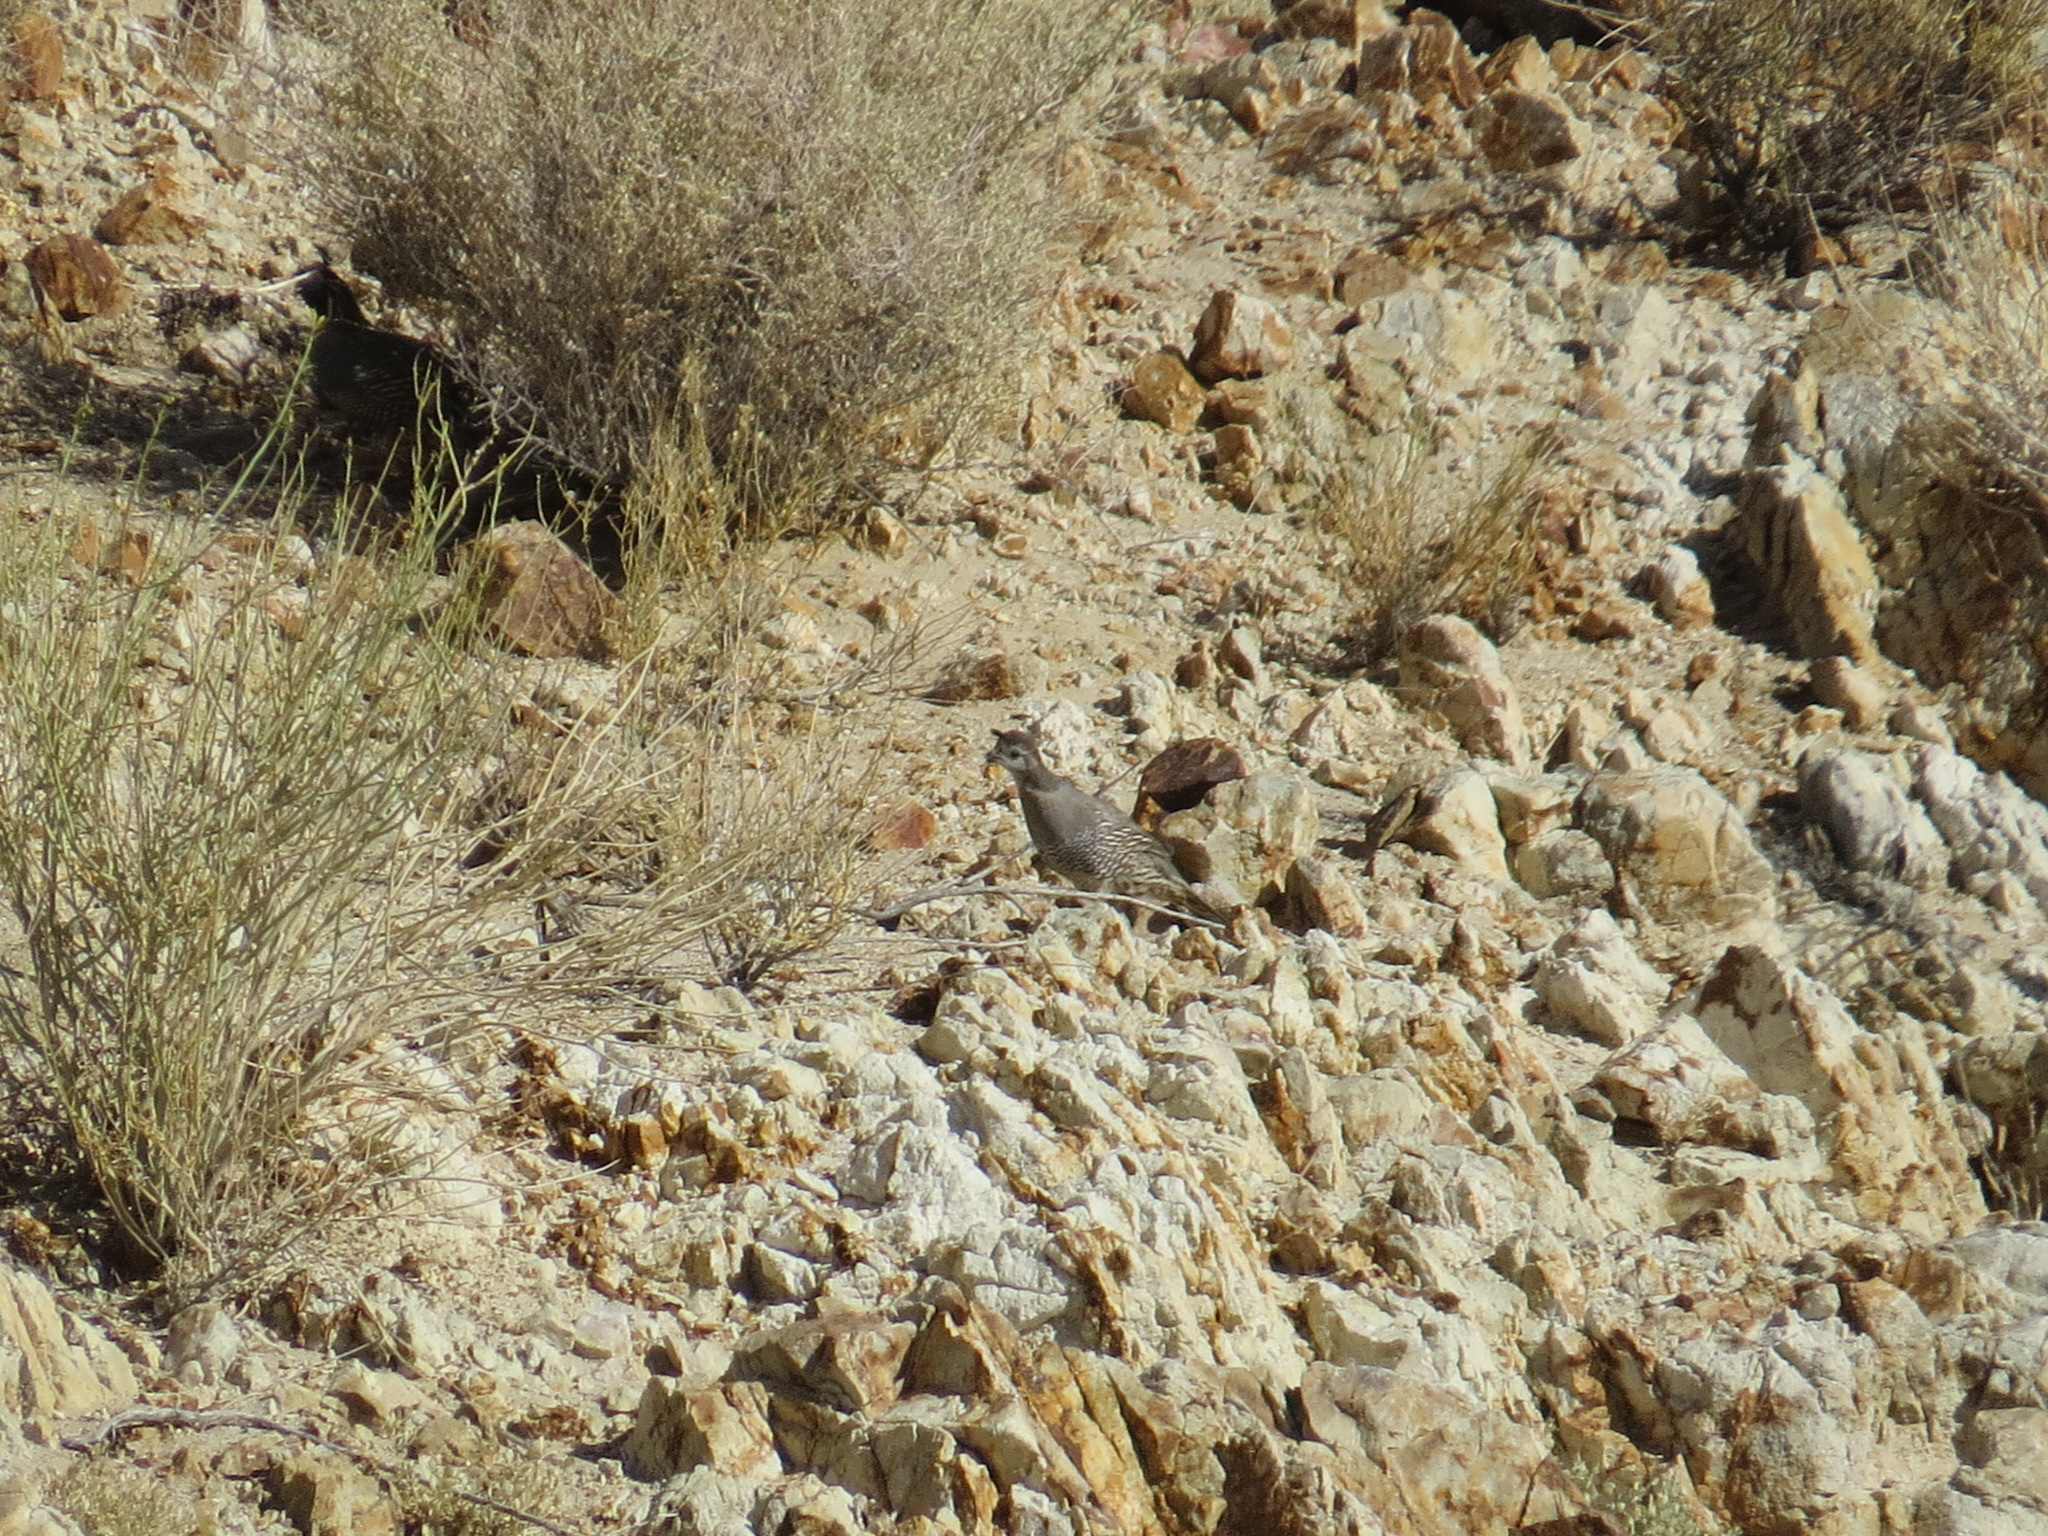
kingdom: Animalia
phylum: Chordata
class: Aves
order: Galliformes
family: Odontophoridae
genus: Callipepla
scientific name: Callipepla californica
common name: California quail
